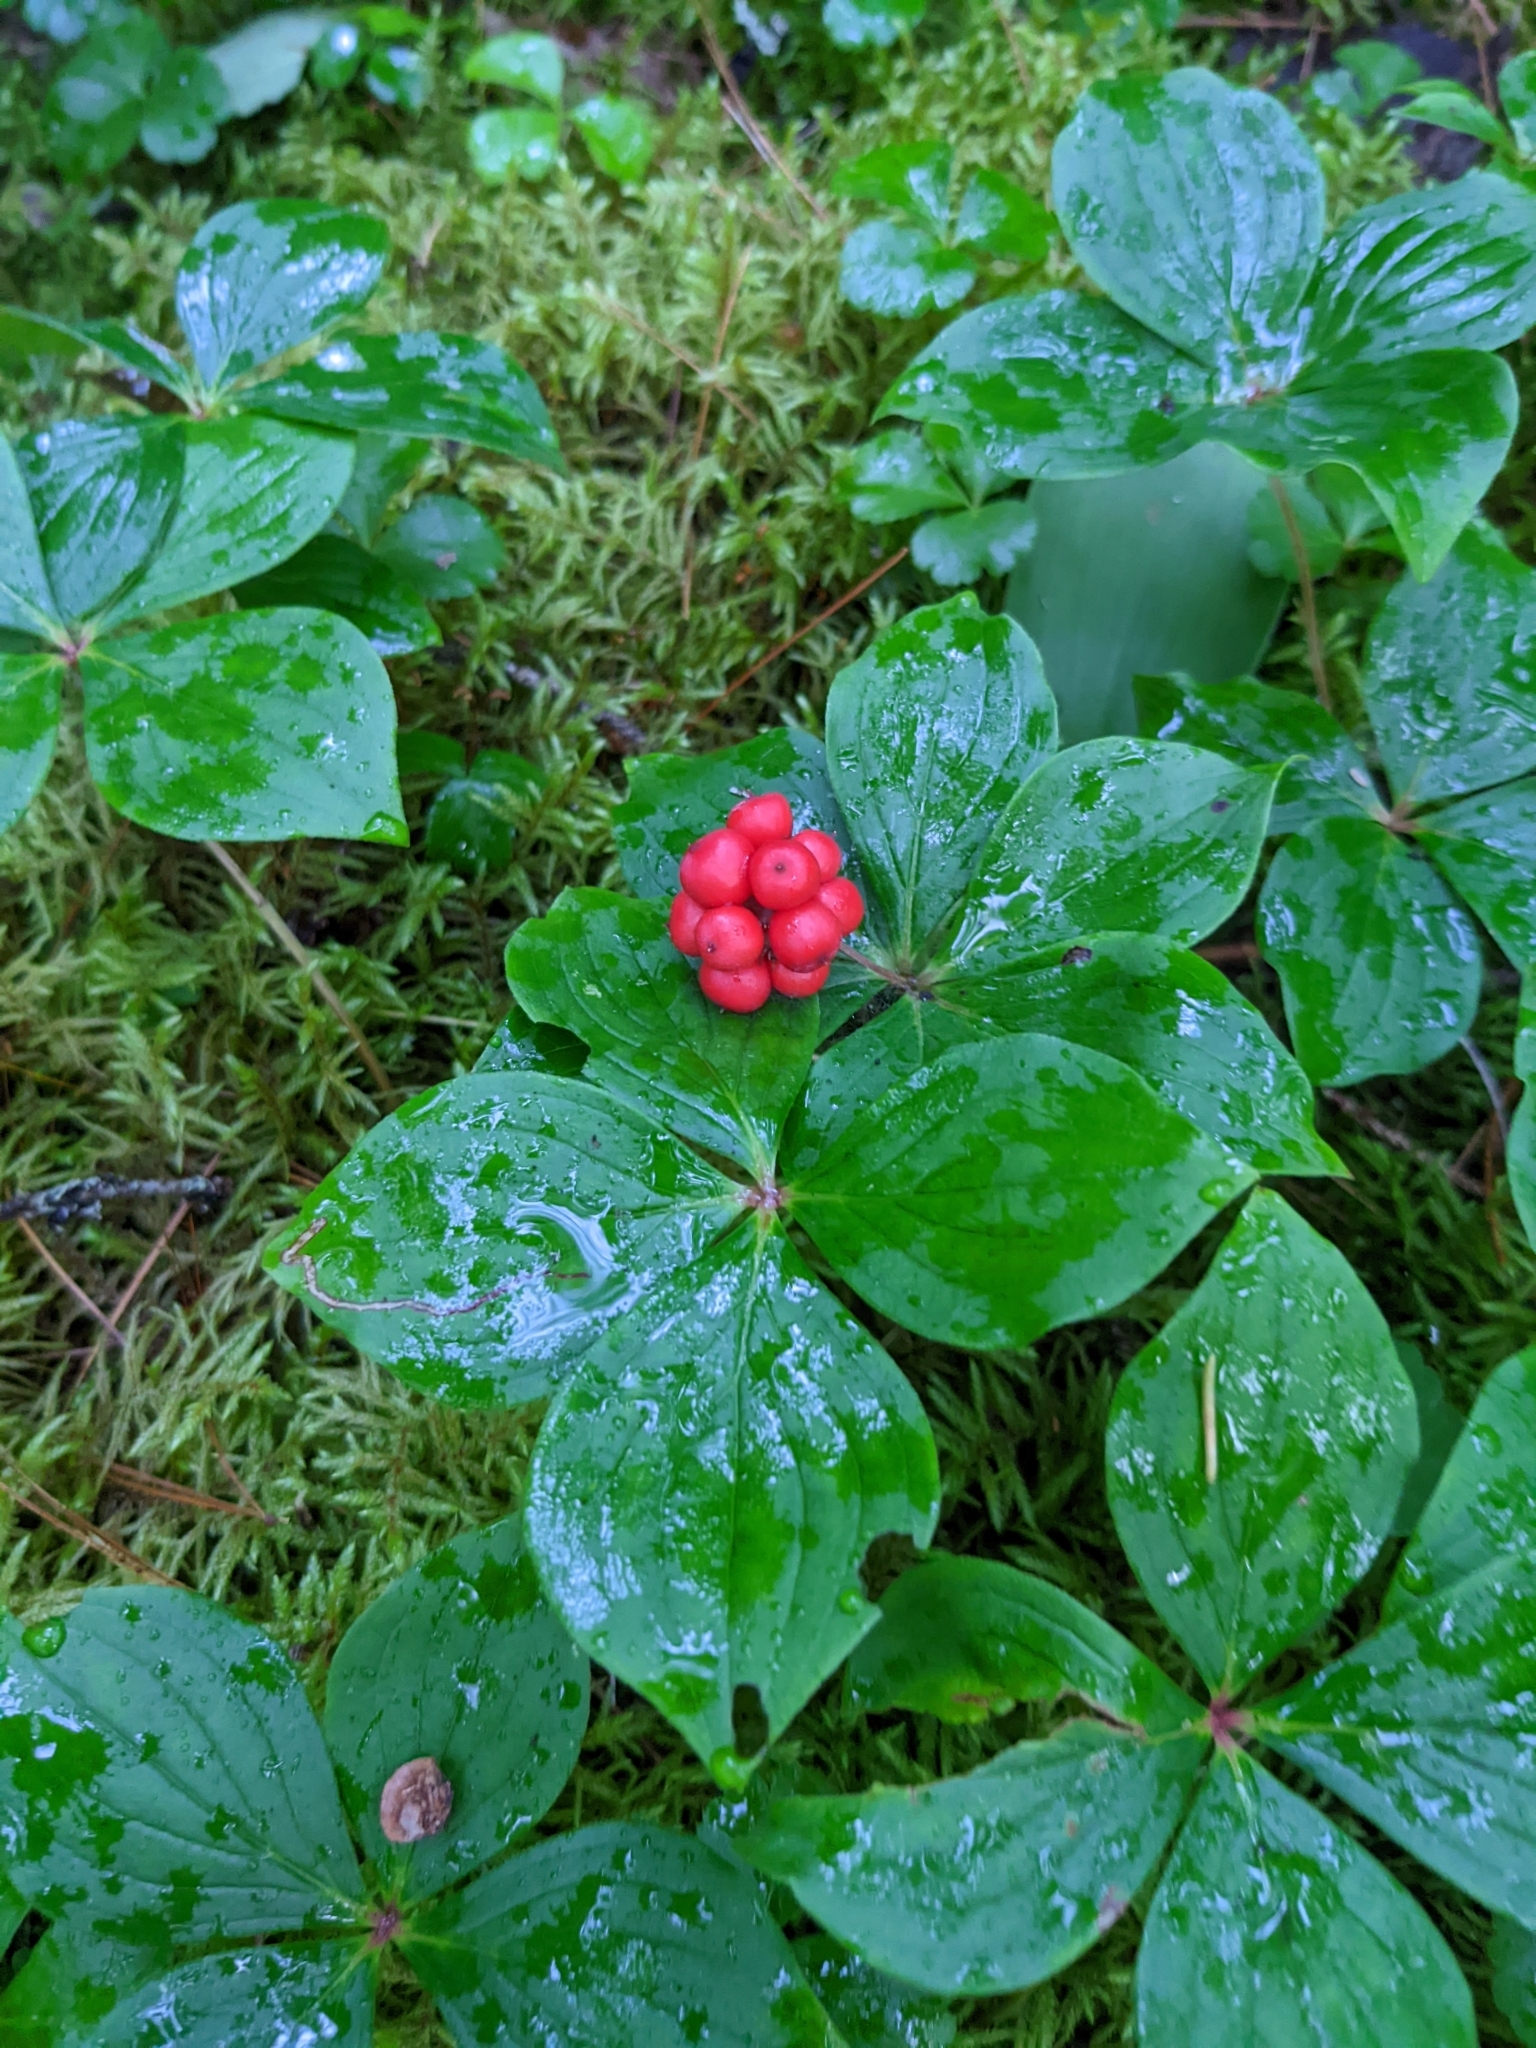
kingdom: Plantae
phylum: Tracheophyta
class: Magnoliopsida
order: Cornales
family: Cornaceae
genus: Cornus
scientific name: Cornus canadensis
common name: Creeping dogwood
